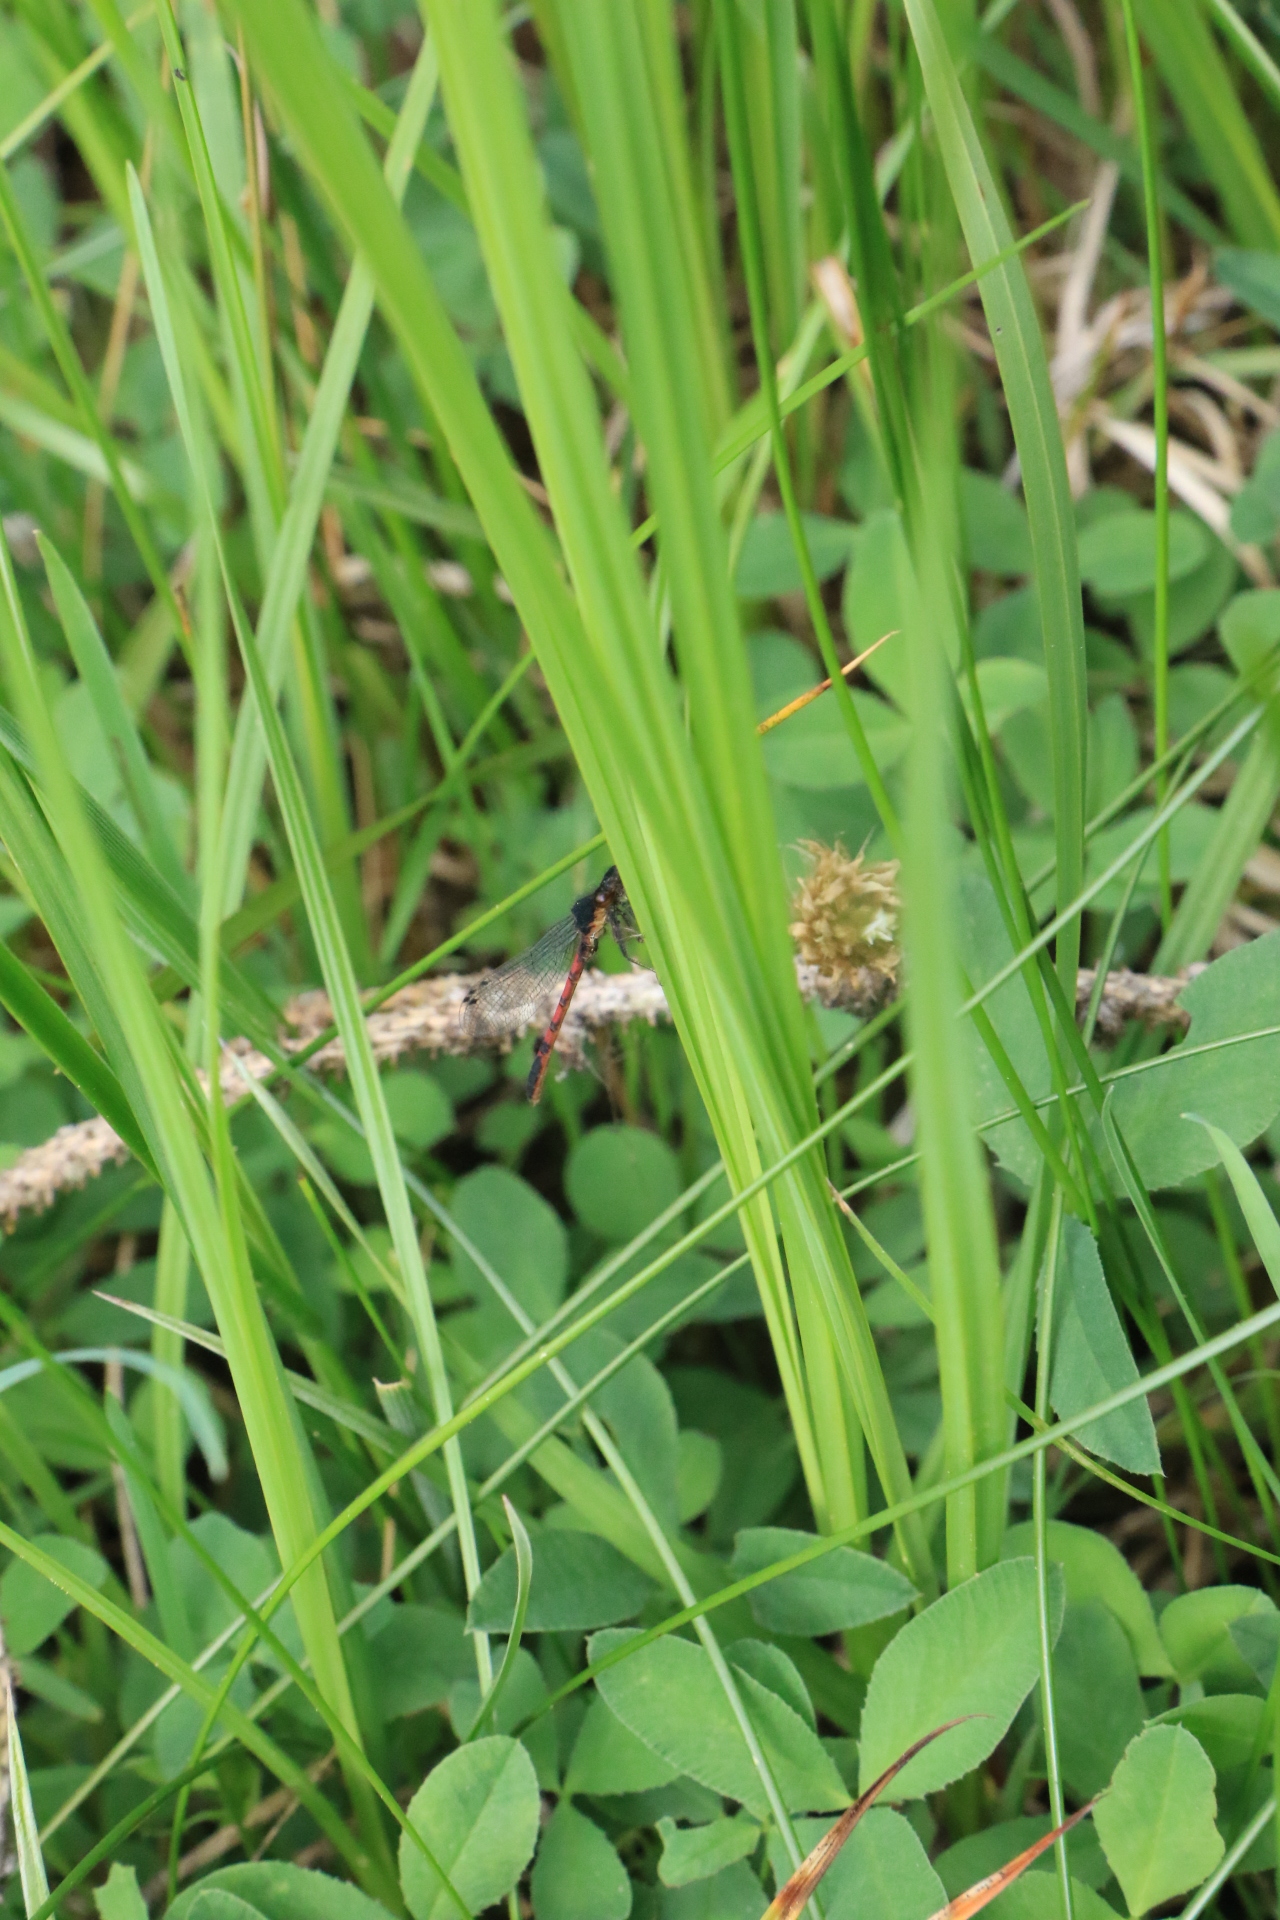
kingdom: Animalia
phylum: Arthropoda
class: Insecta
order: Odonata
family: Coenagrionidae
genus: Amphiagrion
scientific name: Amphiagrion abbreviatum
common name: Western red damsel
